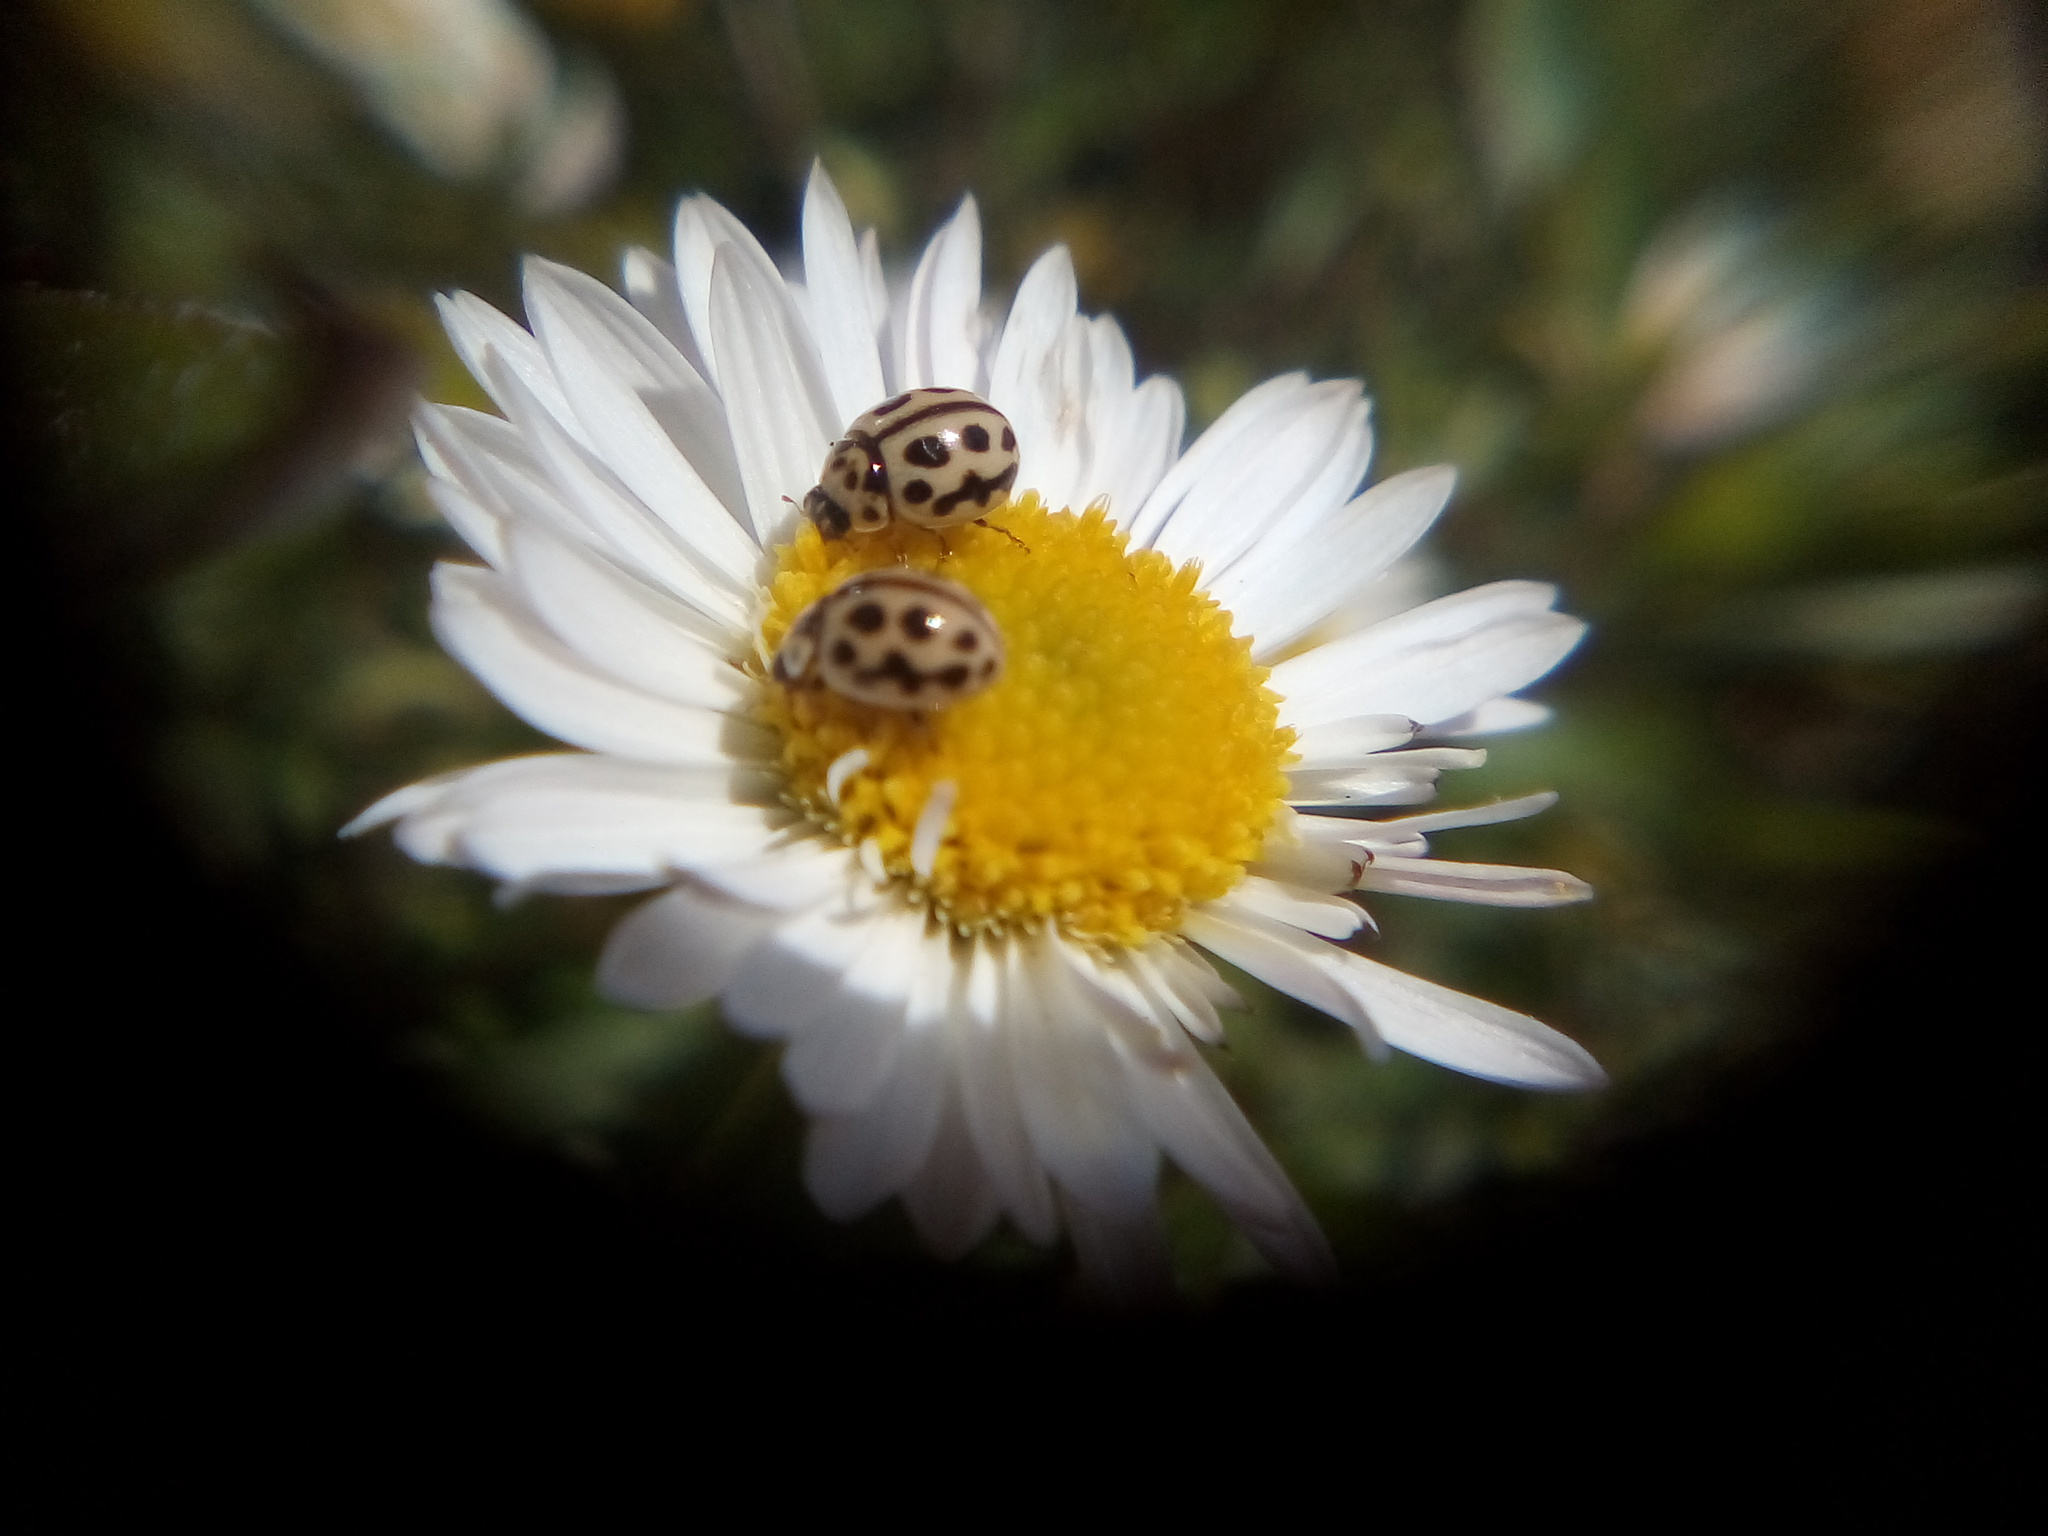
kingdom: Animalia
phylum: Arthropoda
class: Insecta
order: Coleoptera
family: Coccinellidae
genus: Tytthaspis
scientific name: Tytthaspis sedecimpunctata
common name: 16-spot ladybird
